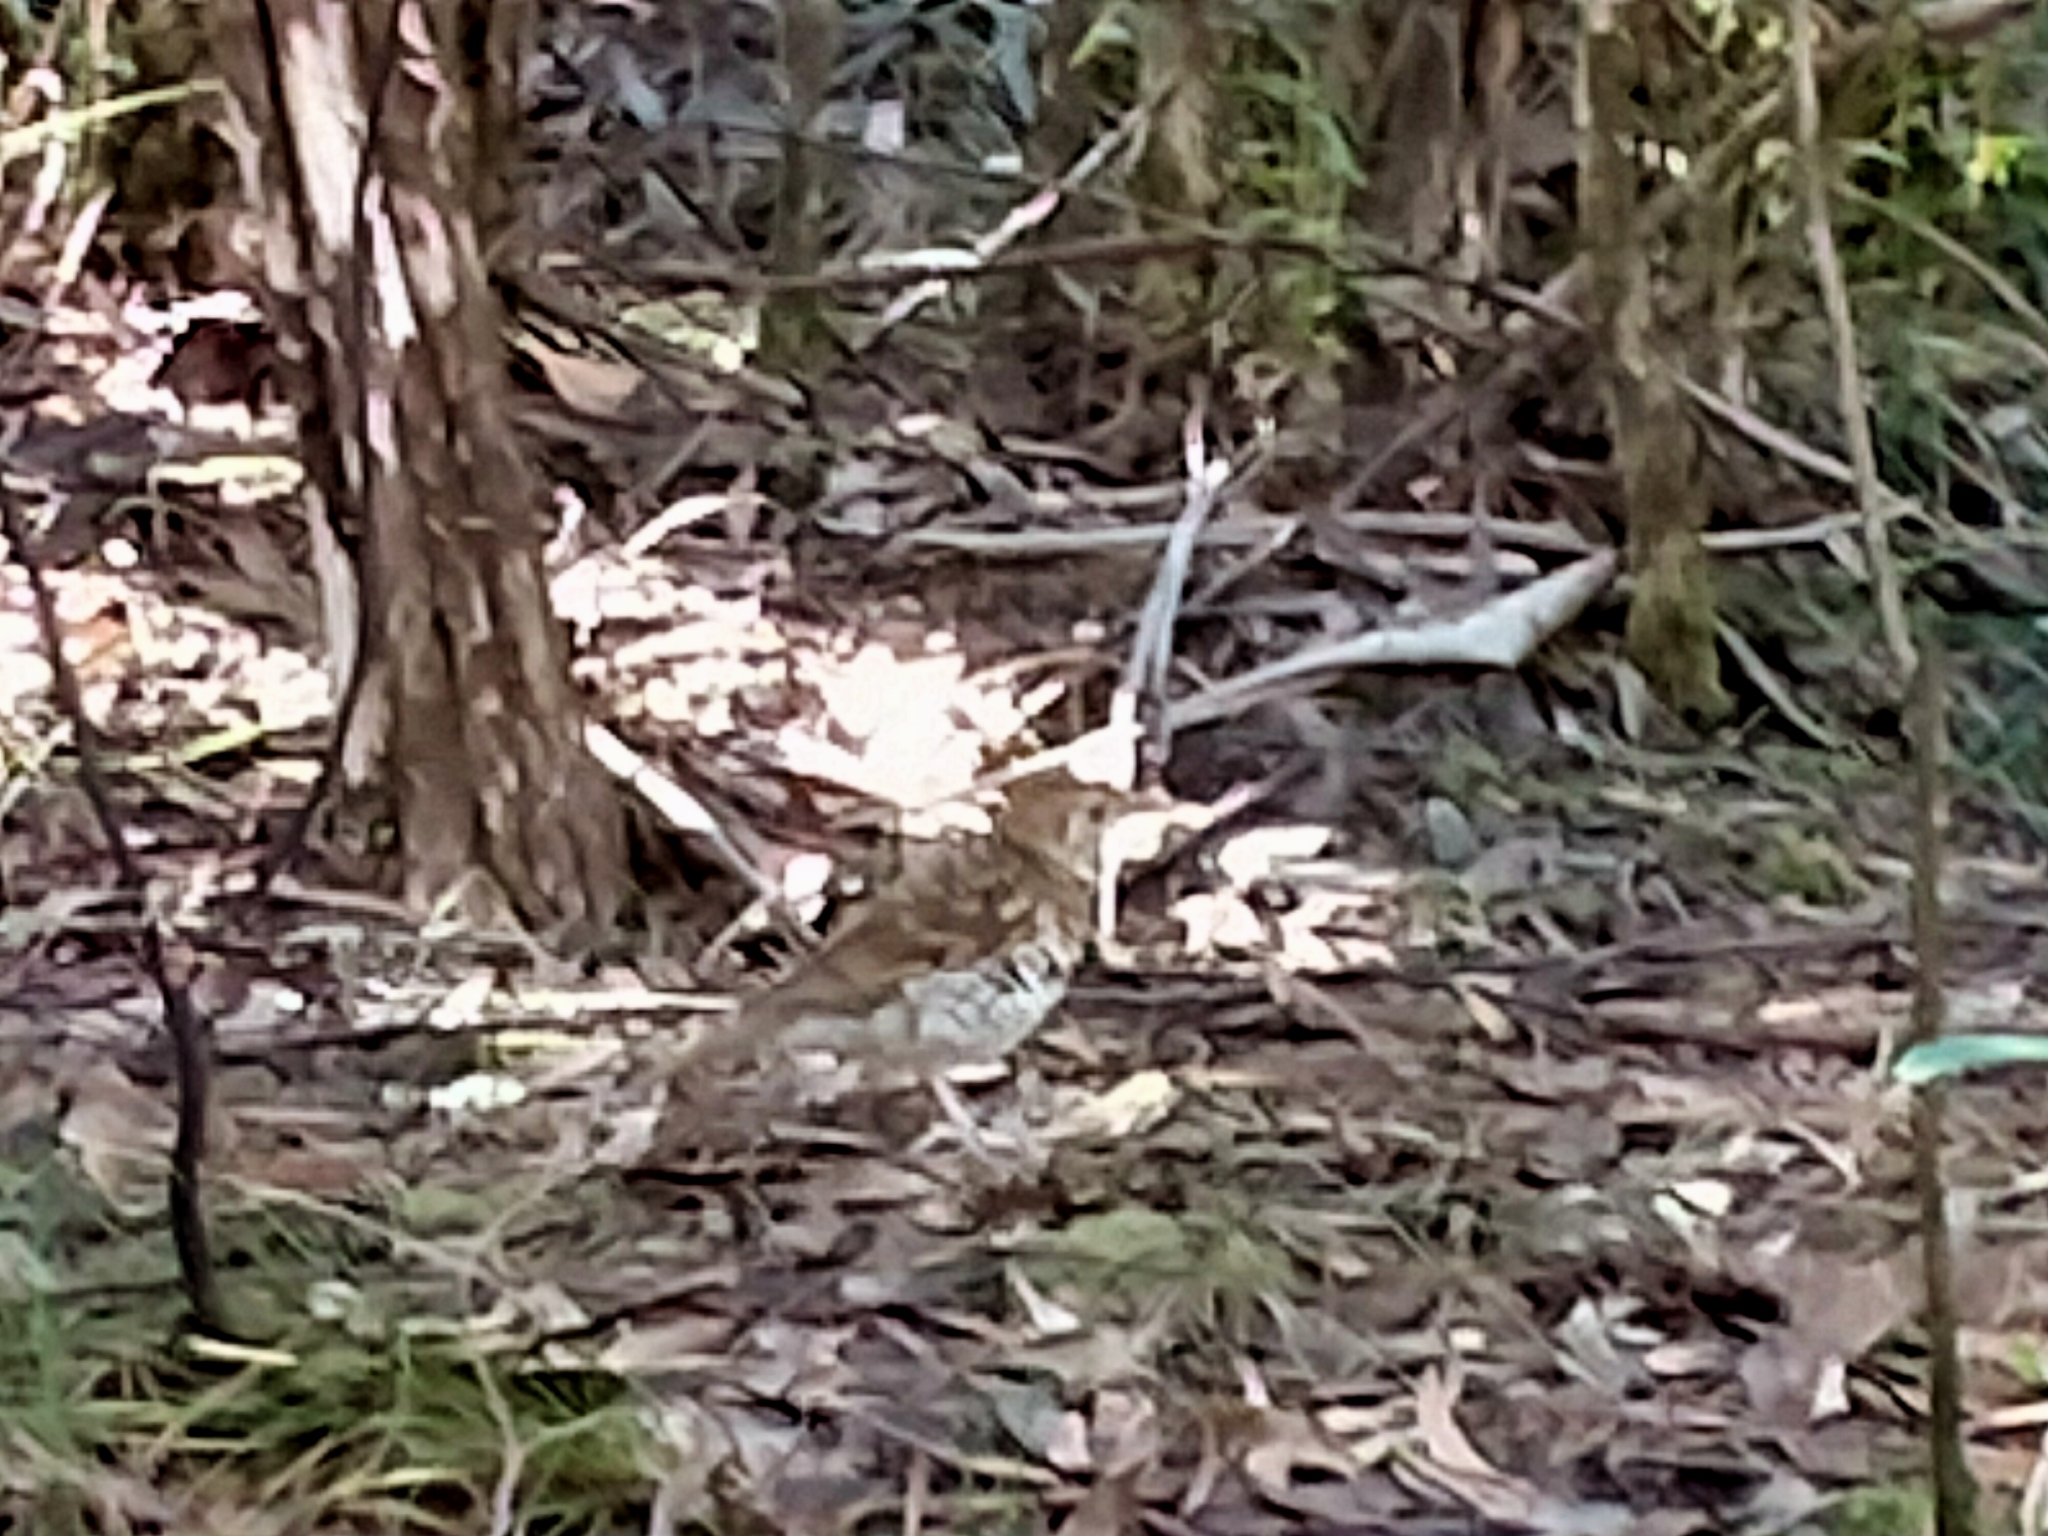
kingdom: Animalia
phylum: Chordata
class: Aves
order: Passeriformes
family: Turdidae
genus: Zoothera
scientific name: Zoothera lunulata
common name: Bassian thrush
